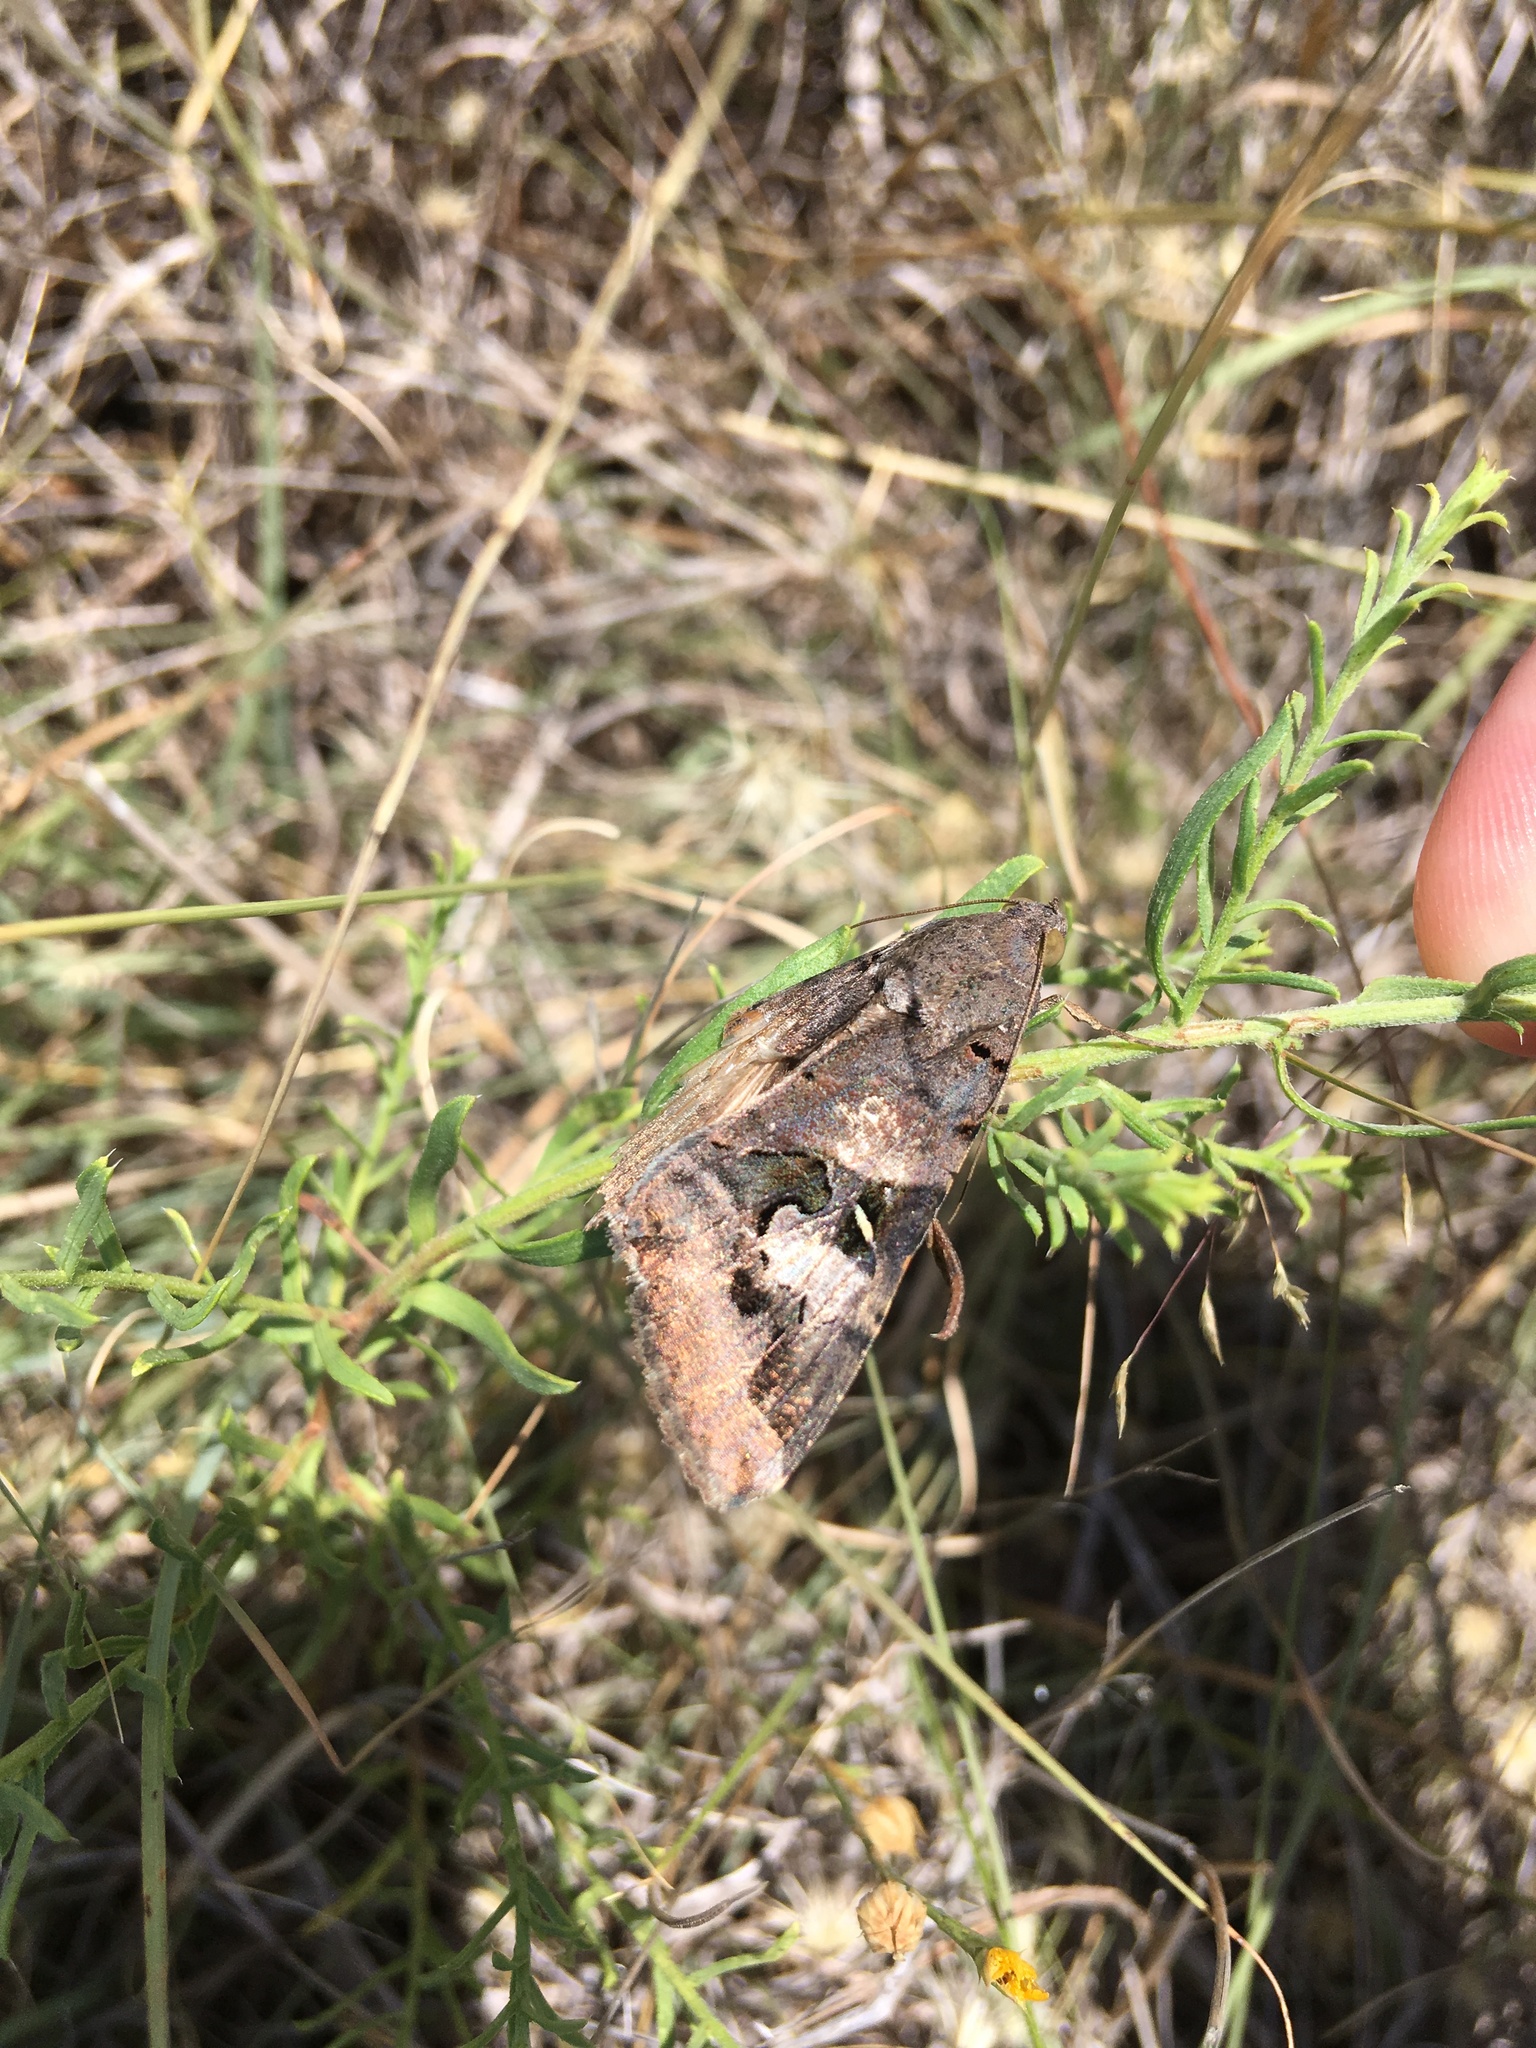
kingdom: Animalia
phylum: Arthropoda
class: Insecta
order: Lepidoptera
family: Erebidae
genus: Melipotis
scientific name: Melipotis indomita
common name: Moth
